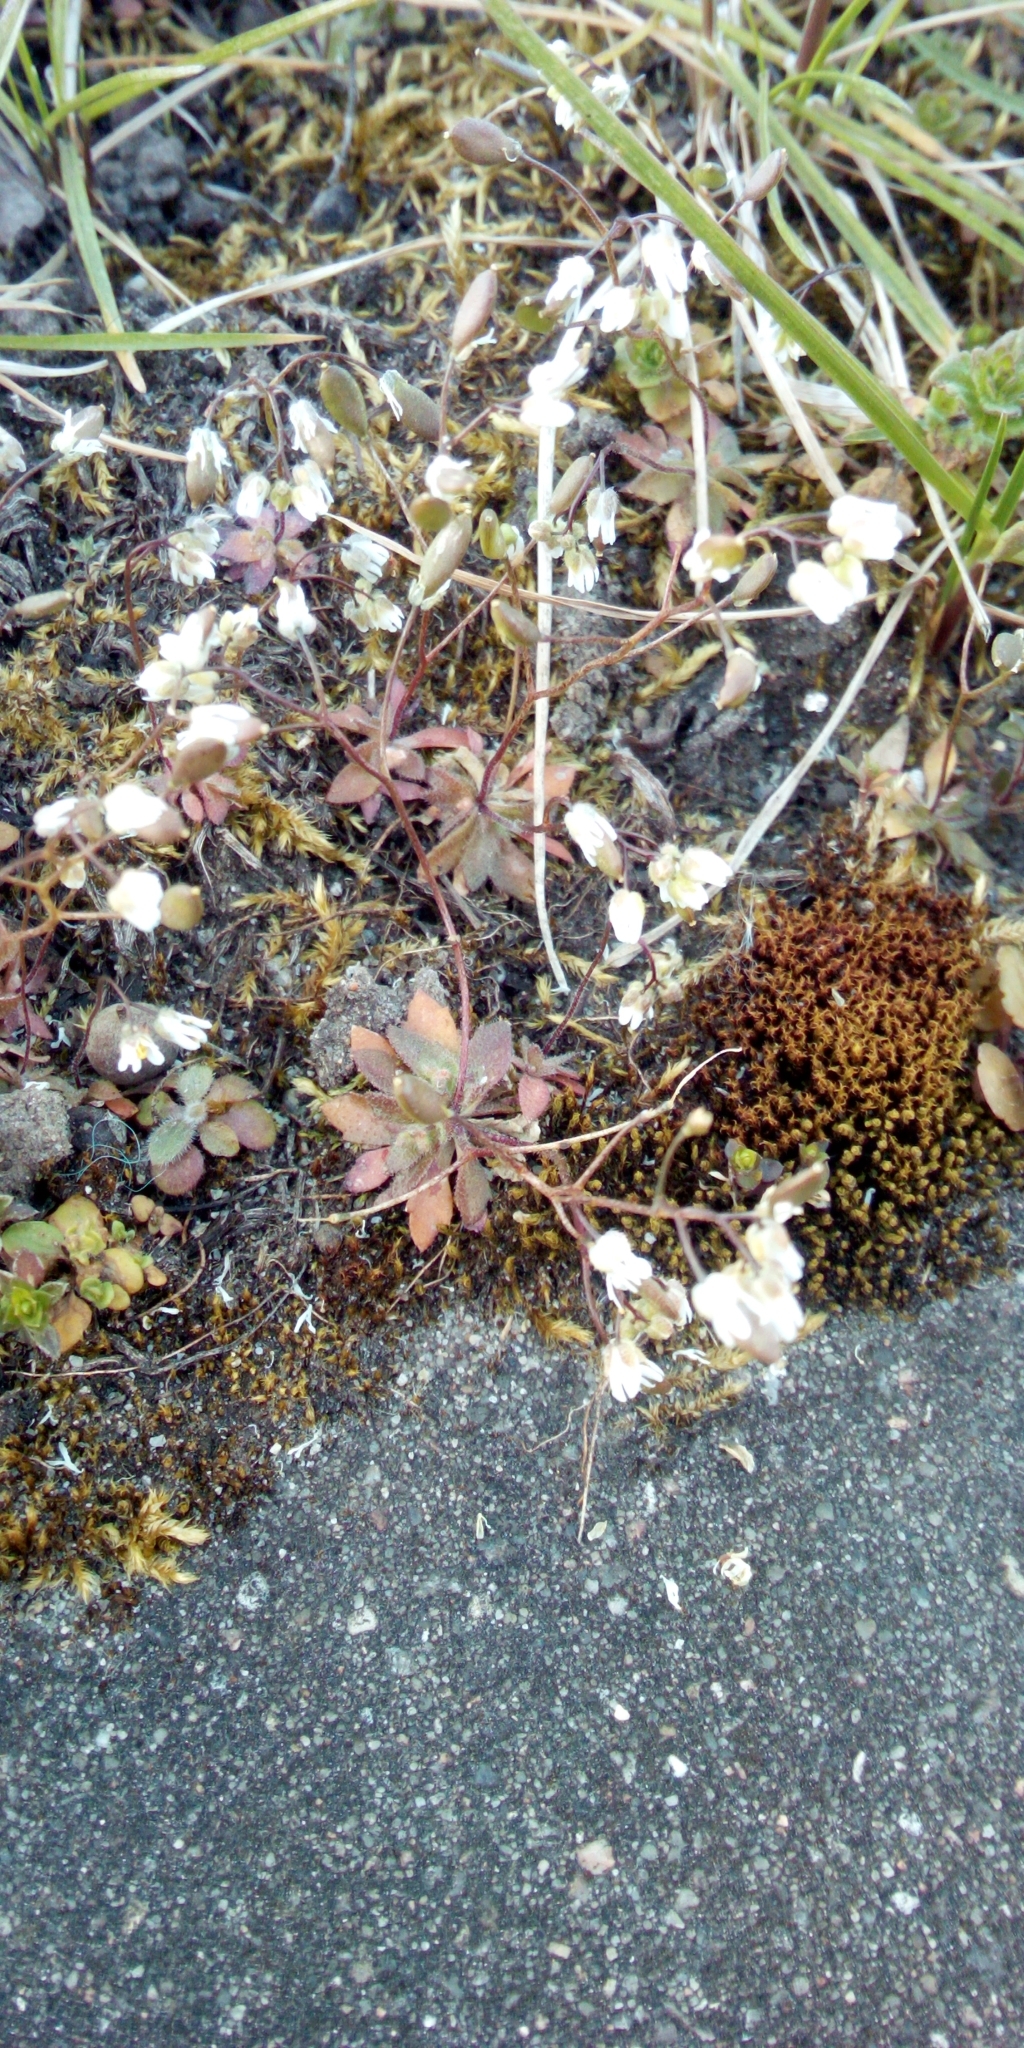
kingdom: Plantae
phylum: Tracheophyta
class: Magnoliopsida
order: Brassicales
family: Brassicaceae
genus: Draba
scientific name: Draba verna
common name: Spring draba
